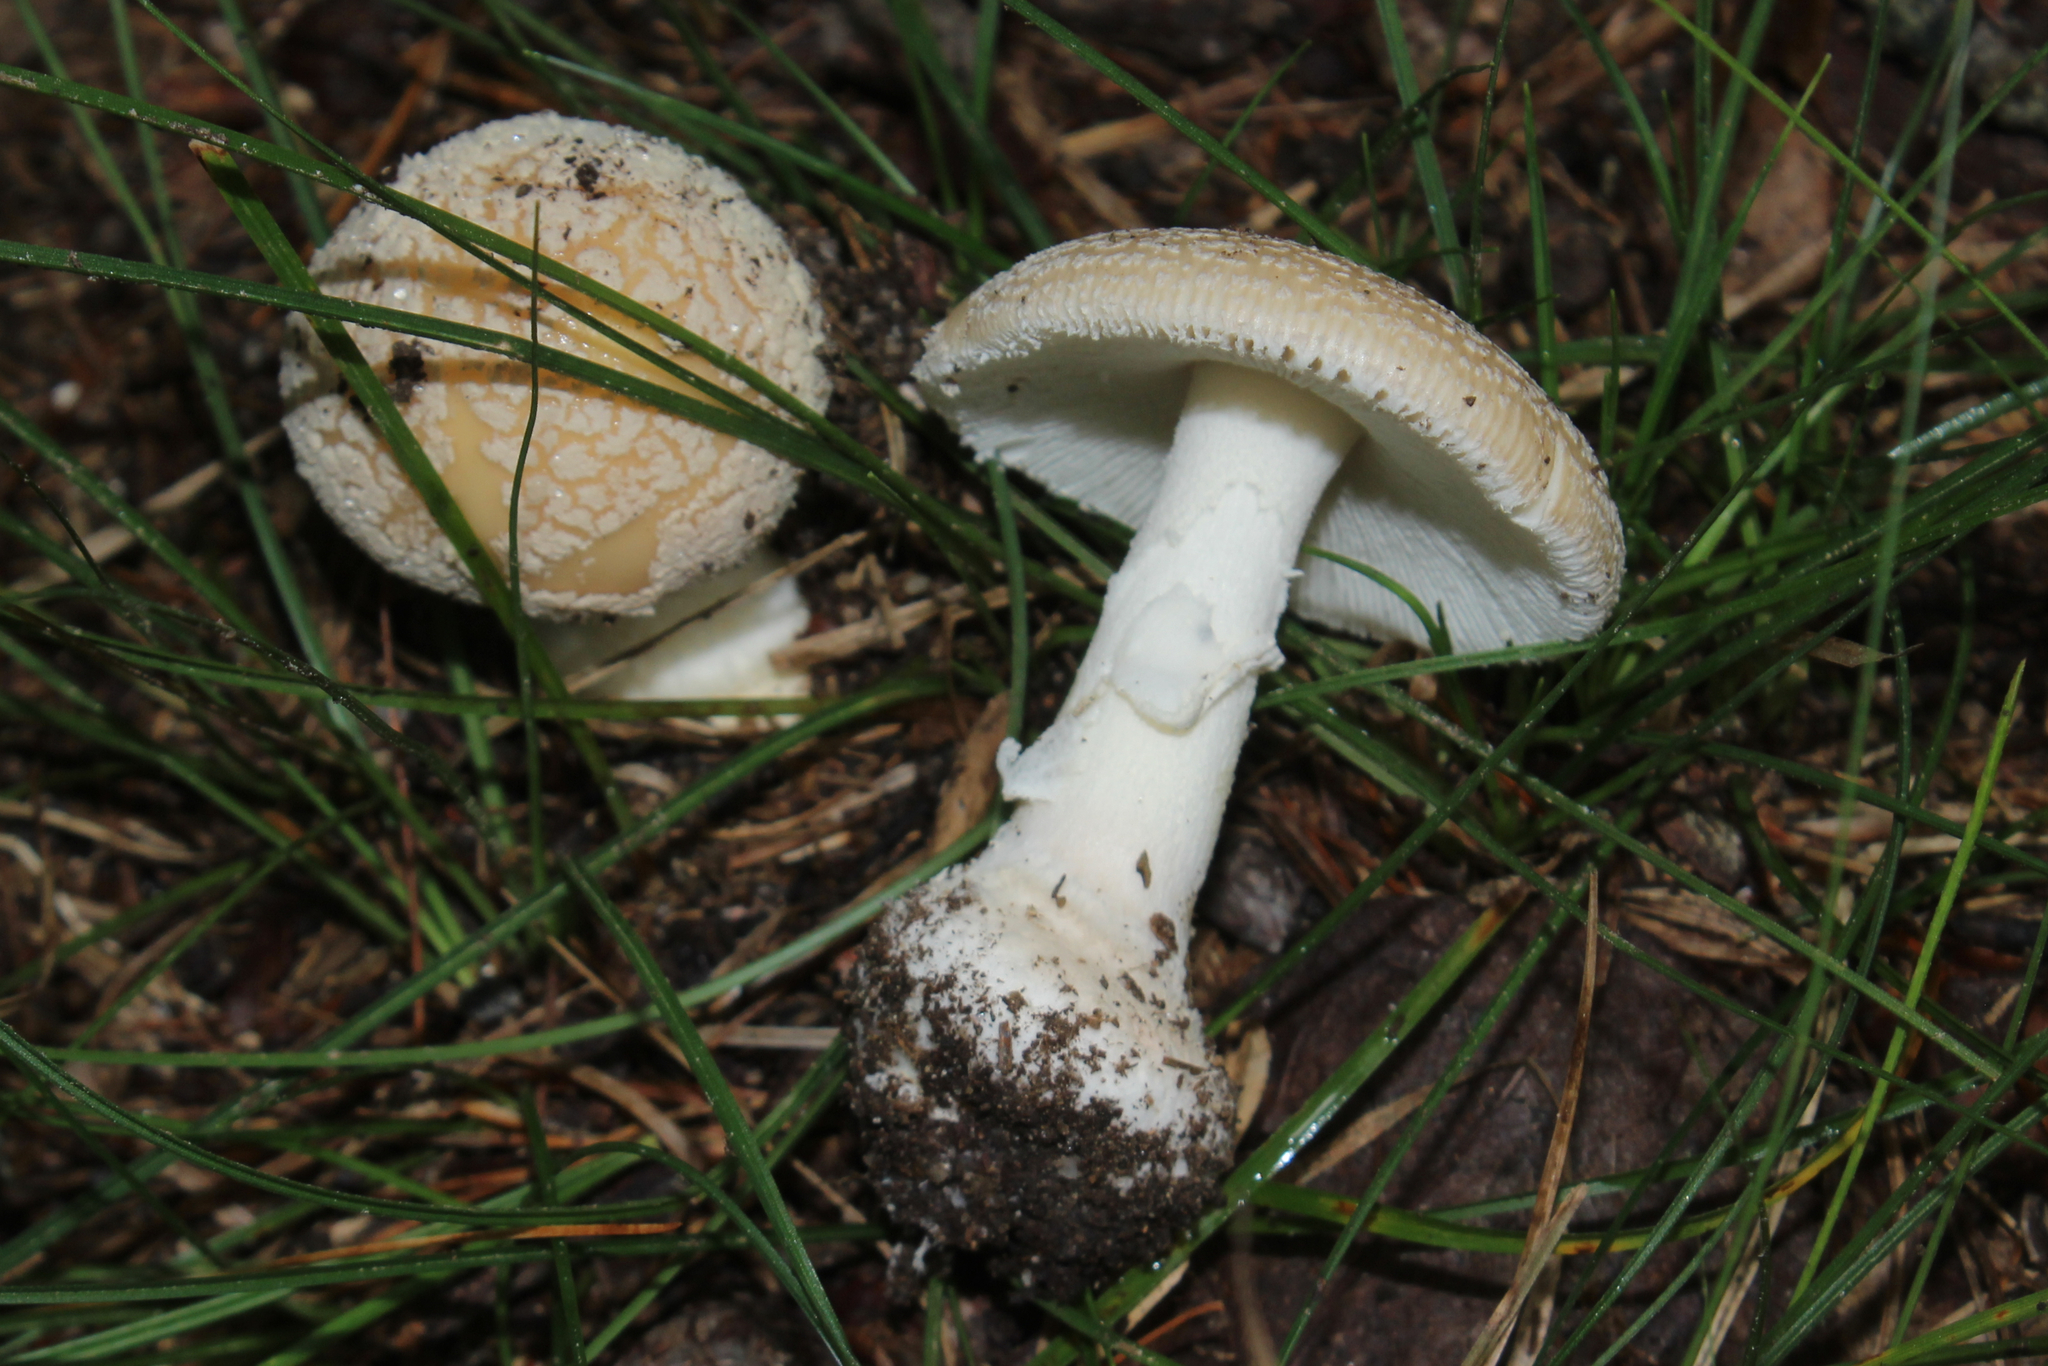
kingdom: Fungi
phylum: Basidiomycota
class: Agaricomycetes
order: Agaricales
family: Amanitaceae
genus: Amanita
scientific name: Amanita crenulata
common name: Poison champagne amanita
